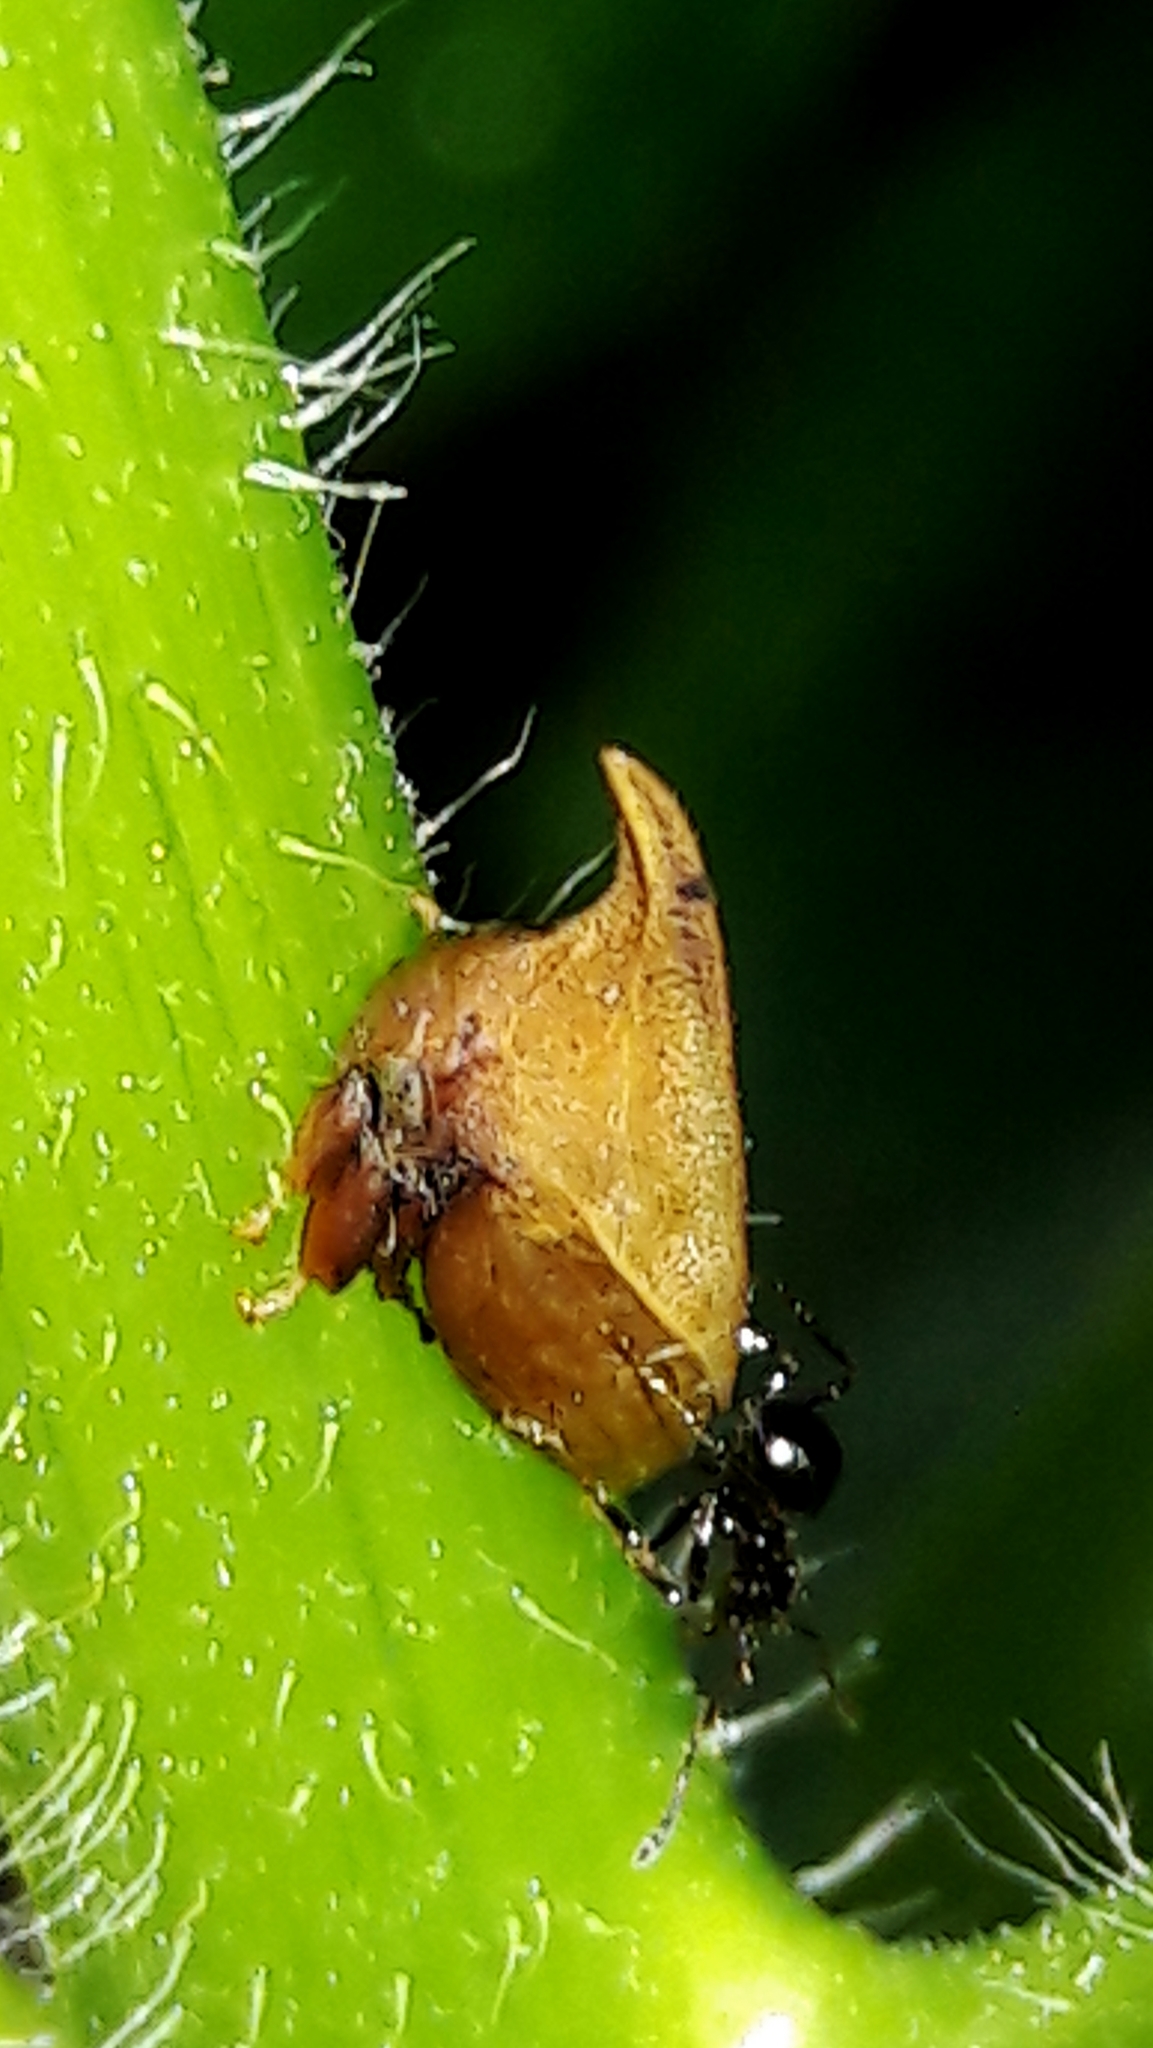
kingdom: Animalia
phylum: Arthropoda
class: Insecta
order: Hemiptera
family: Membracidae
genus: Enchenopa
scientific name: Enchenopa squamigera
